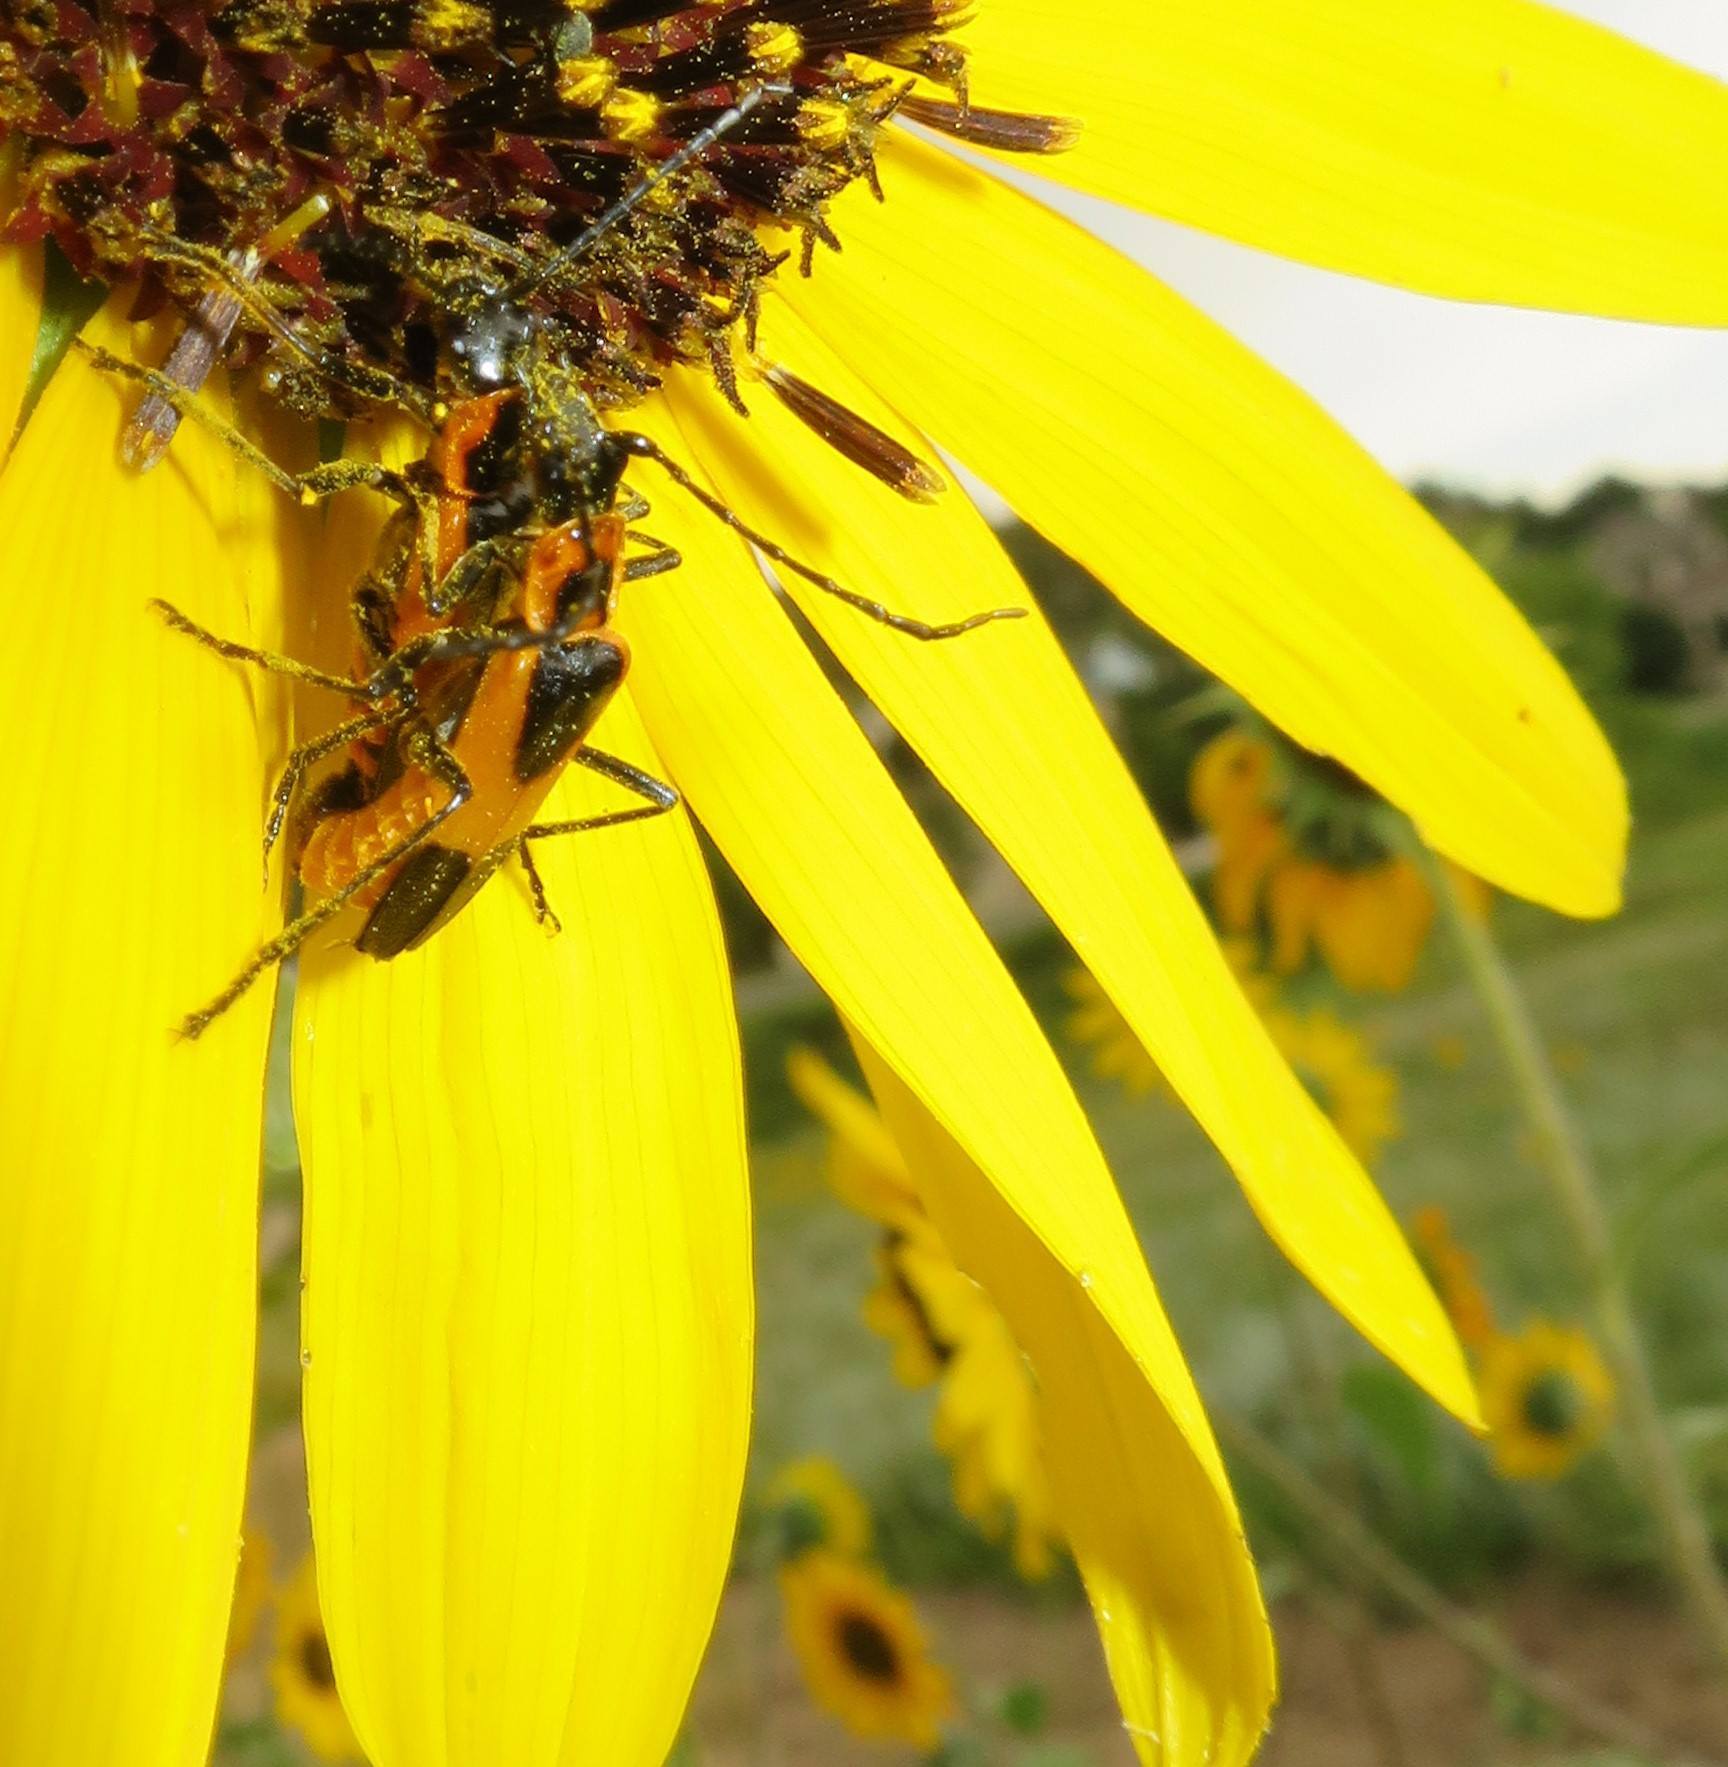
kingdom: Animalia
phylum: Arthropoda
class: Insecta
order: Coleoptera
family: Cantharidae
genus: Chauliognathus
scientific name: Chauliognathus basalis
